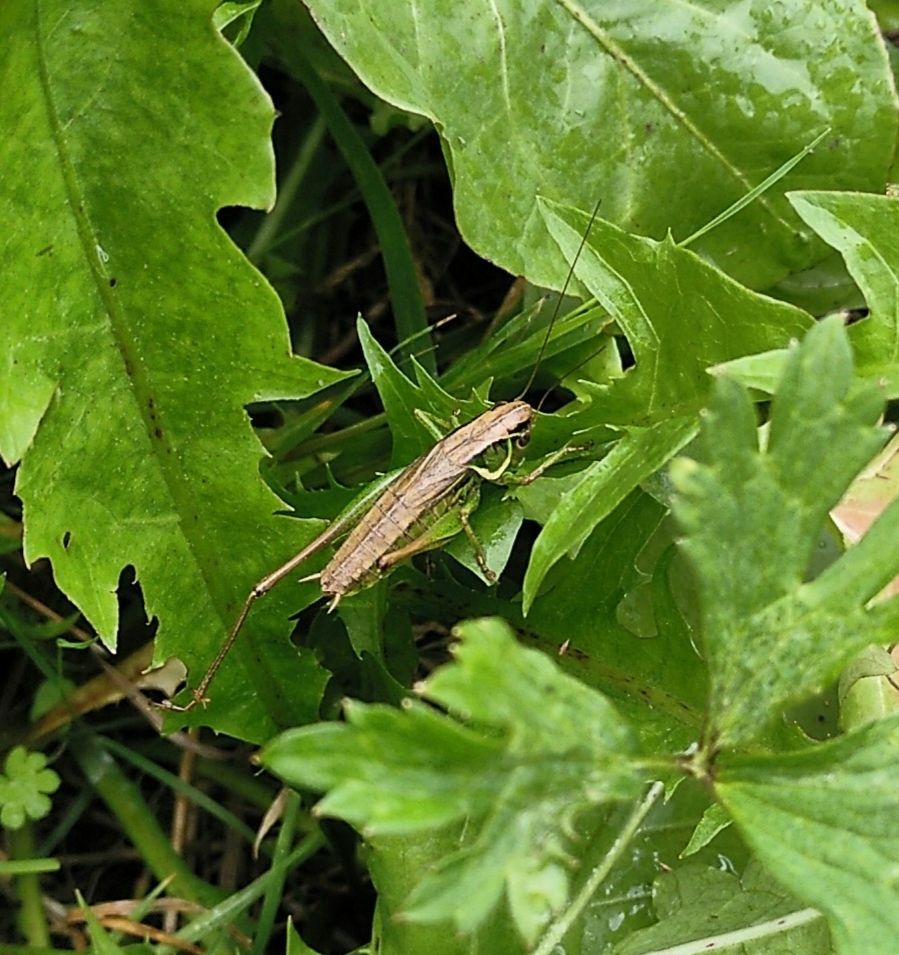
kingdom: Animalia
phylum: Arthropoda
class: Insecta
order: Orthoptera
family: Tettigoniidae
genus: Roeseliana
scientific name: Roeseliana roeselii
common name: Roesel's bush cricket
